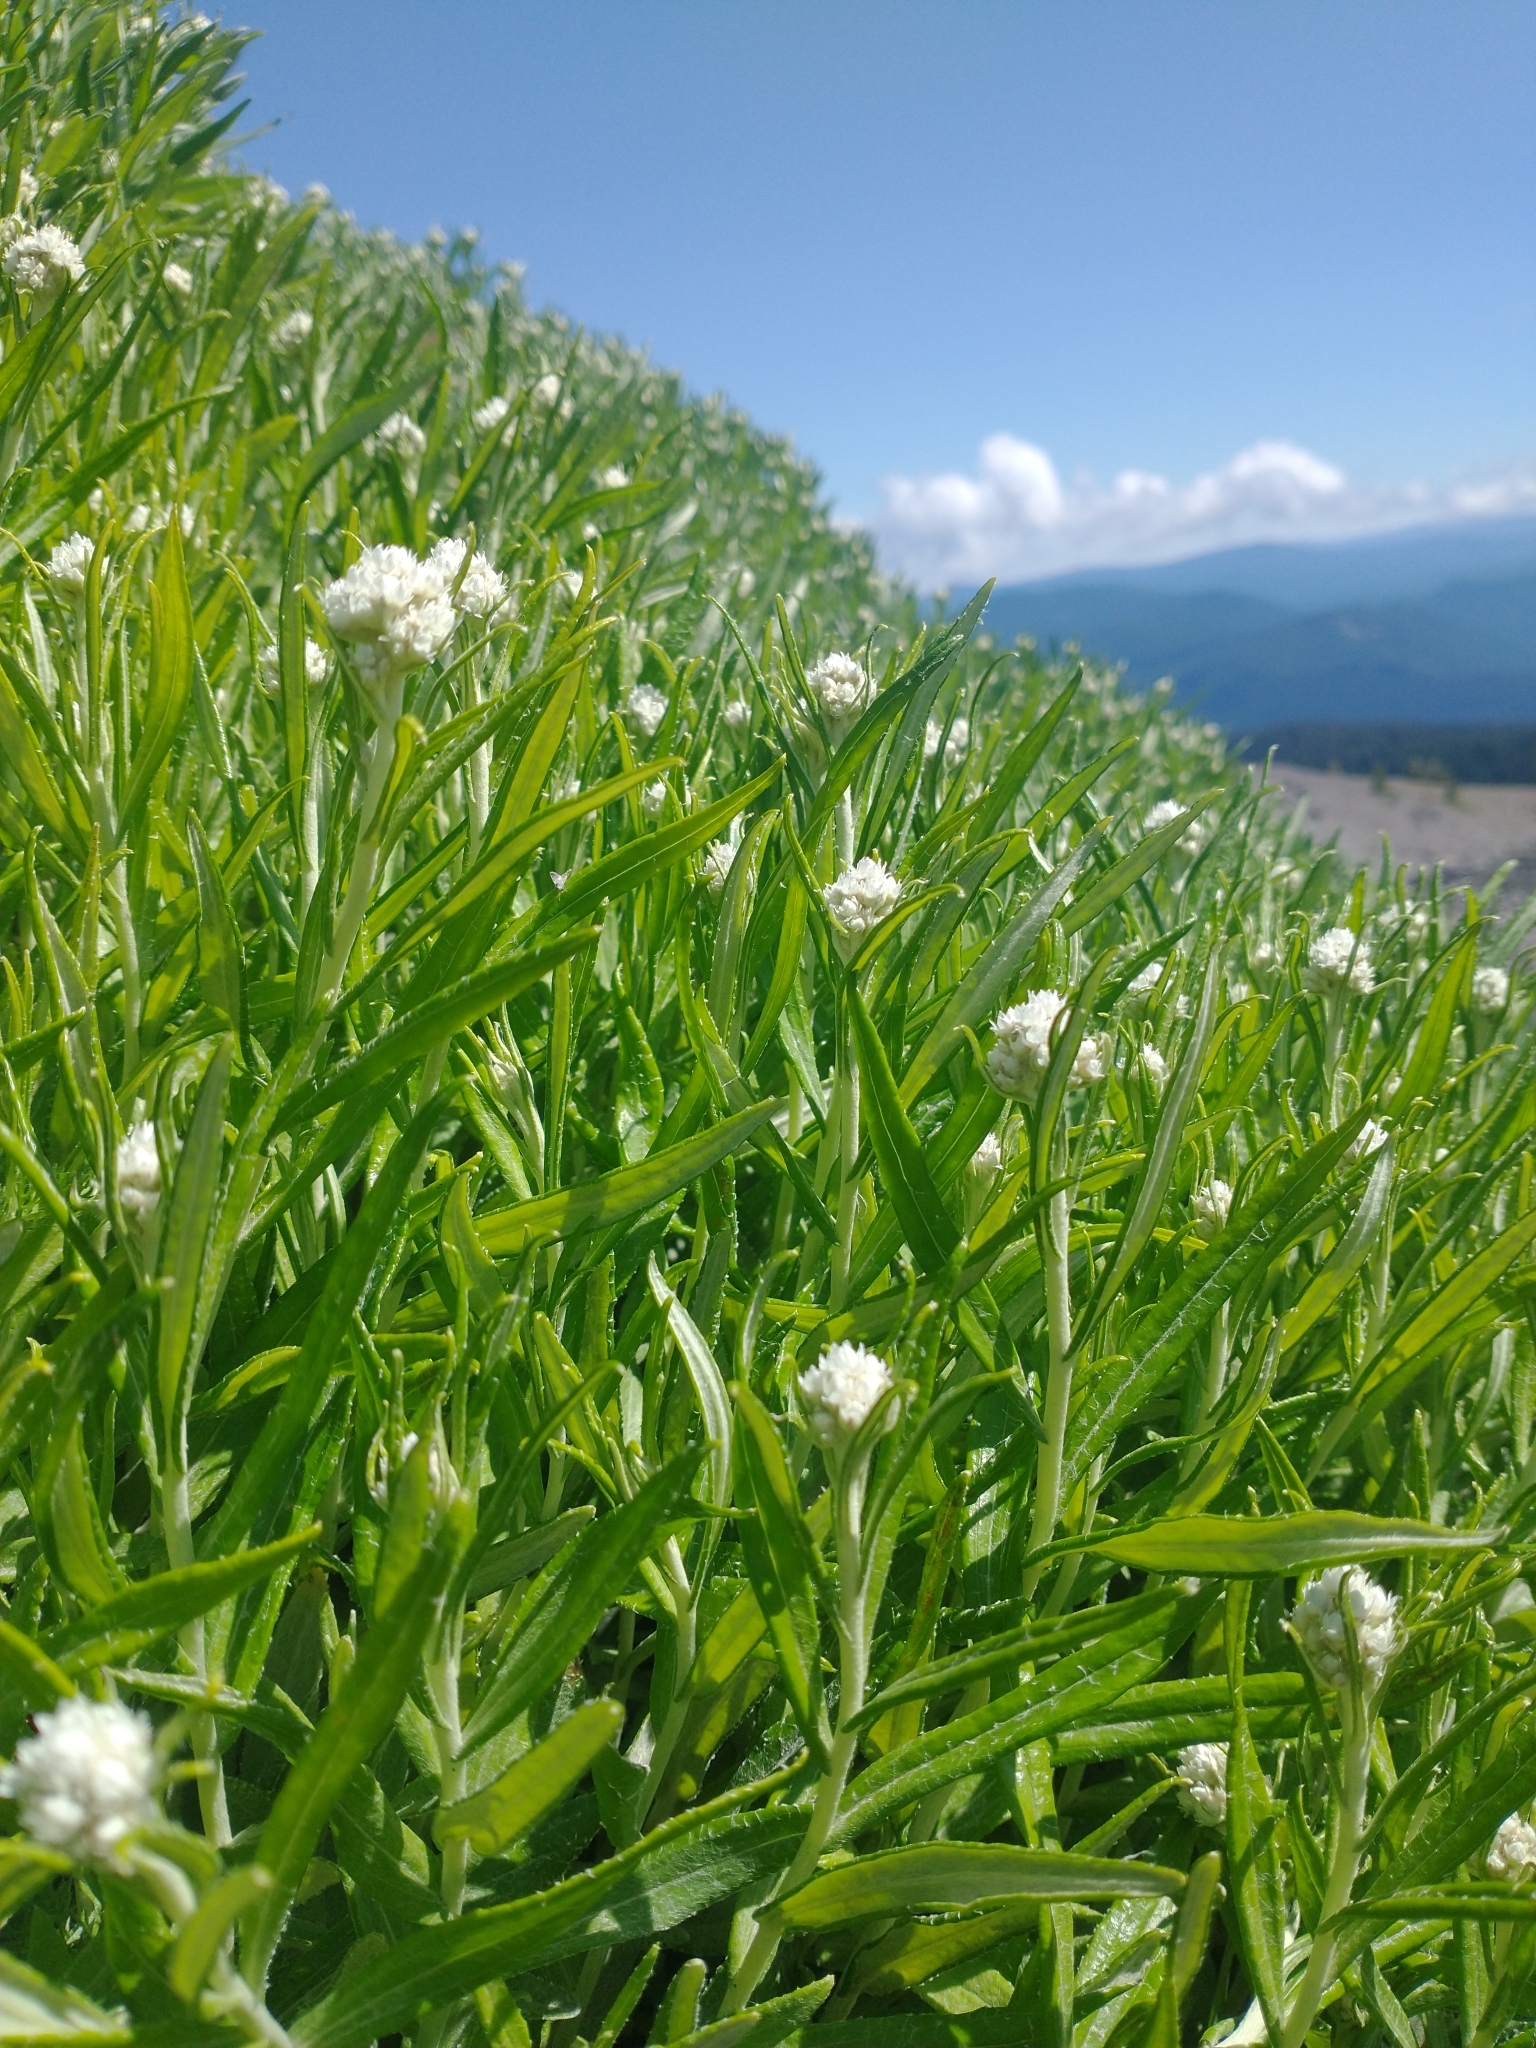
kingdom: Plantae
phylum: Tracheophyta
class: Magnoliopsida
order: Asterales
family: Asteraceae
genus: Anaphalis
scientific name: Anaphalis margaritacea
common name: Pearly everlasting
